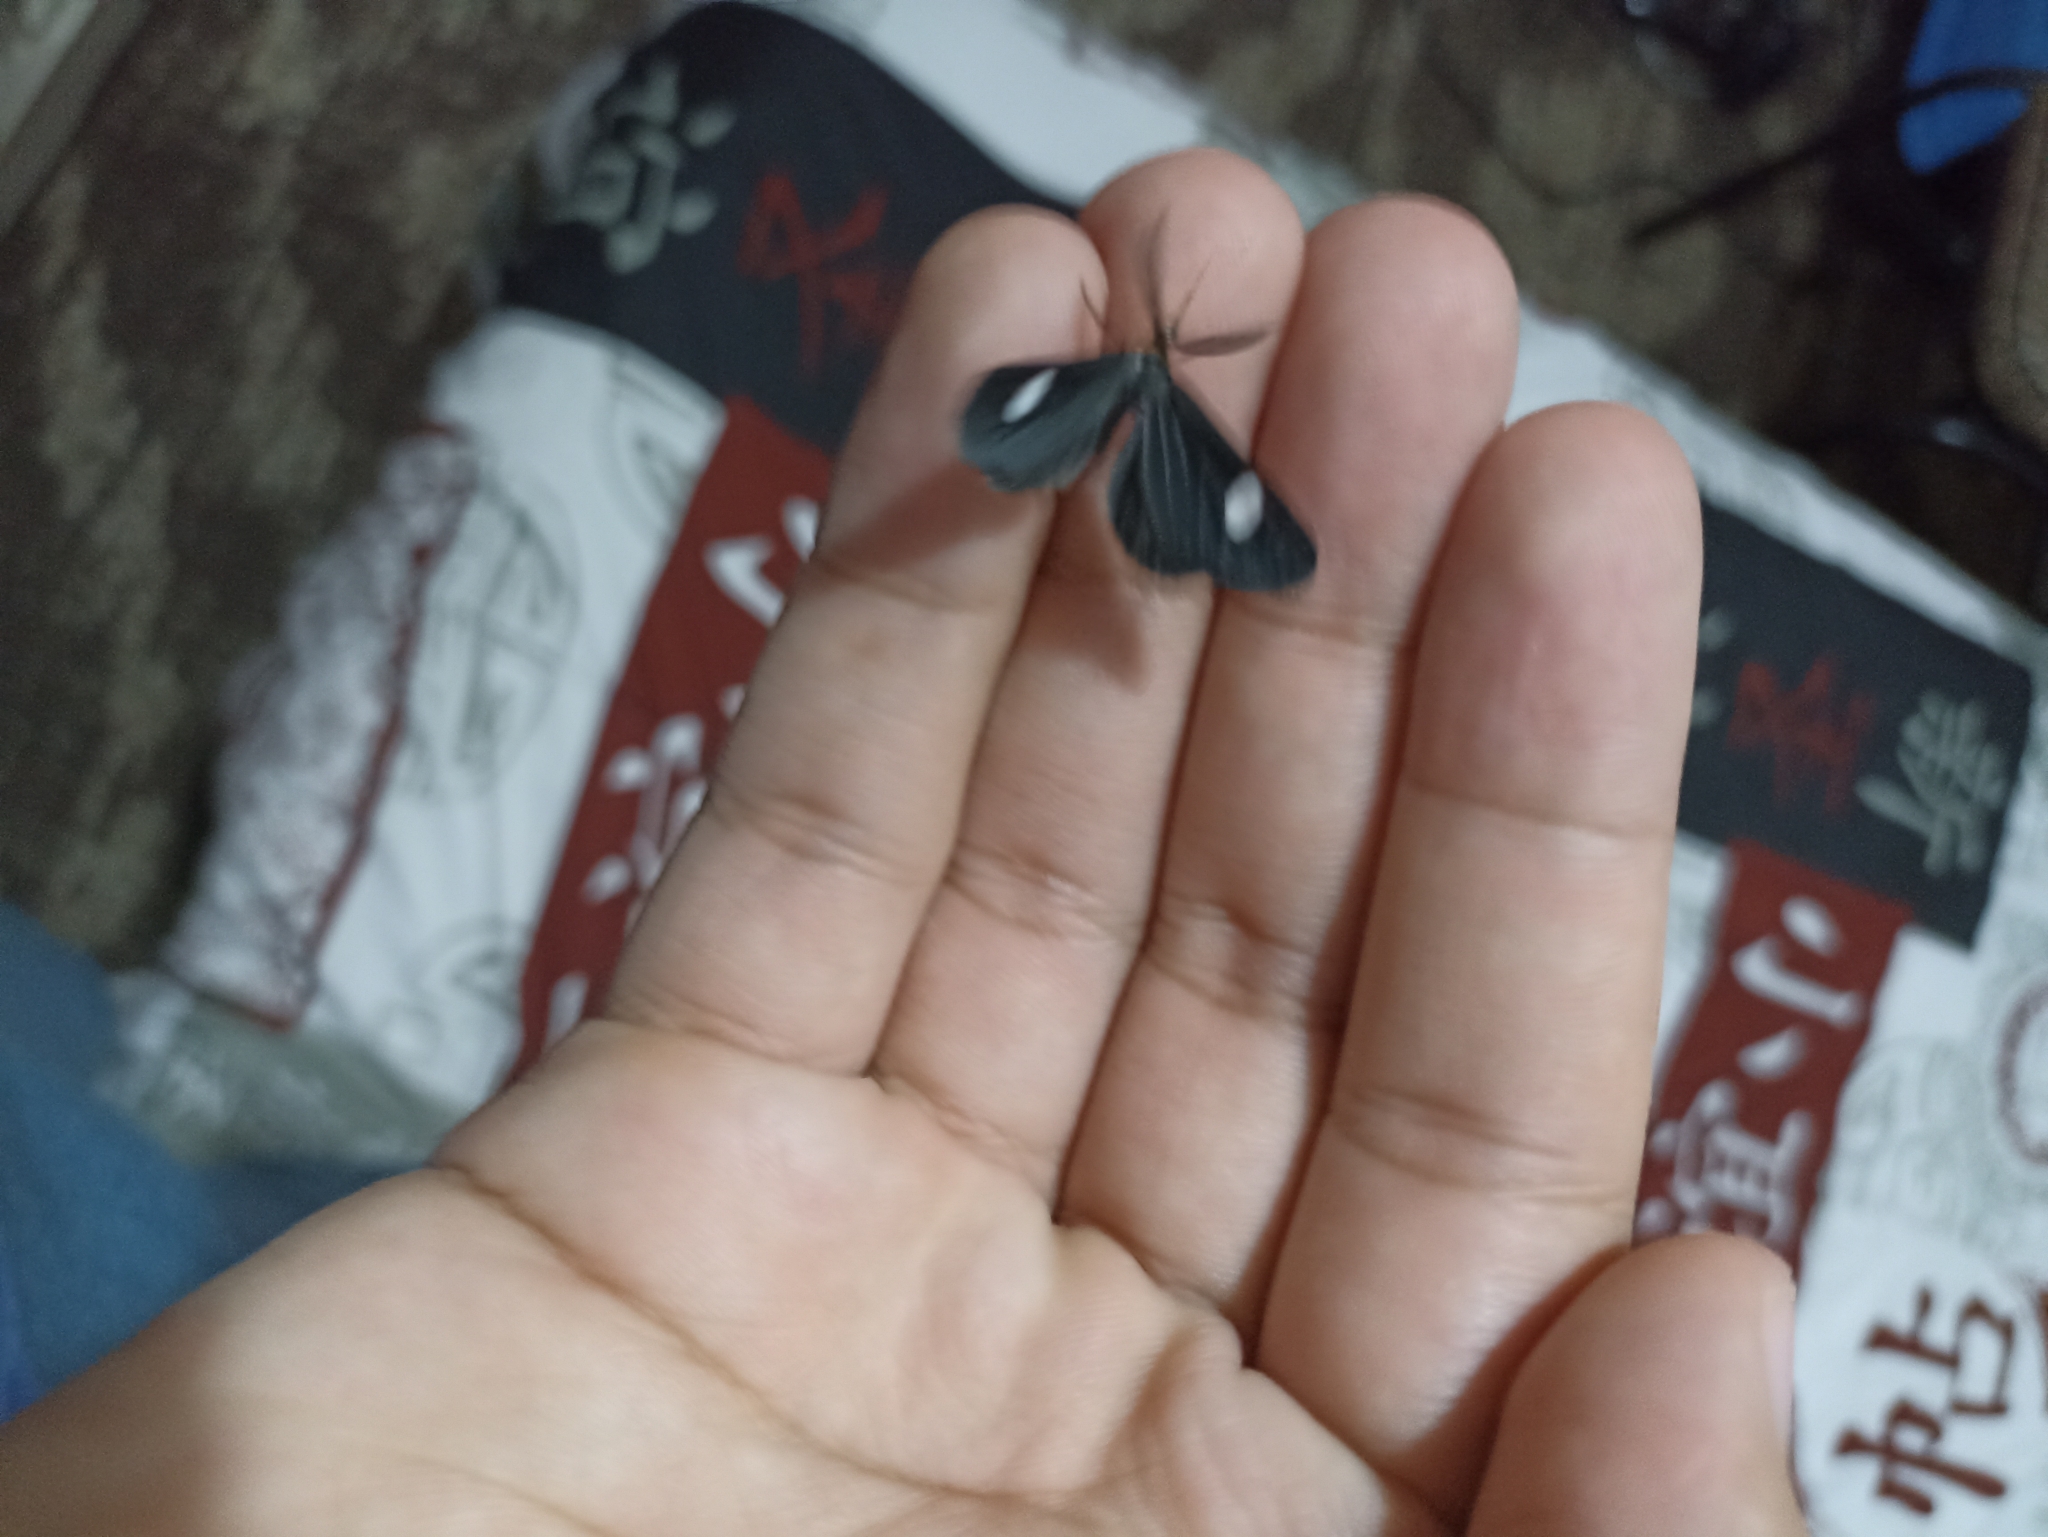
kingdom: Animalia
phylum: Arthropoda
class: Insecta
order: Lepidoptera
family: Geometridae
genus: Melanchroia
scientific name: Melanchroia aterea
